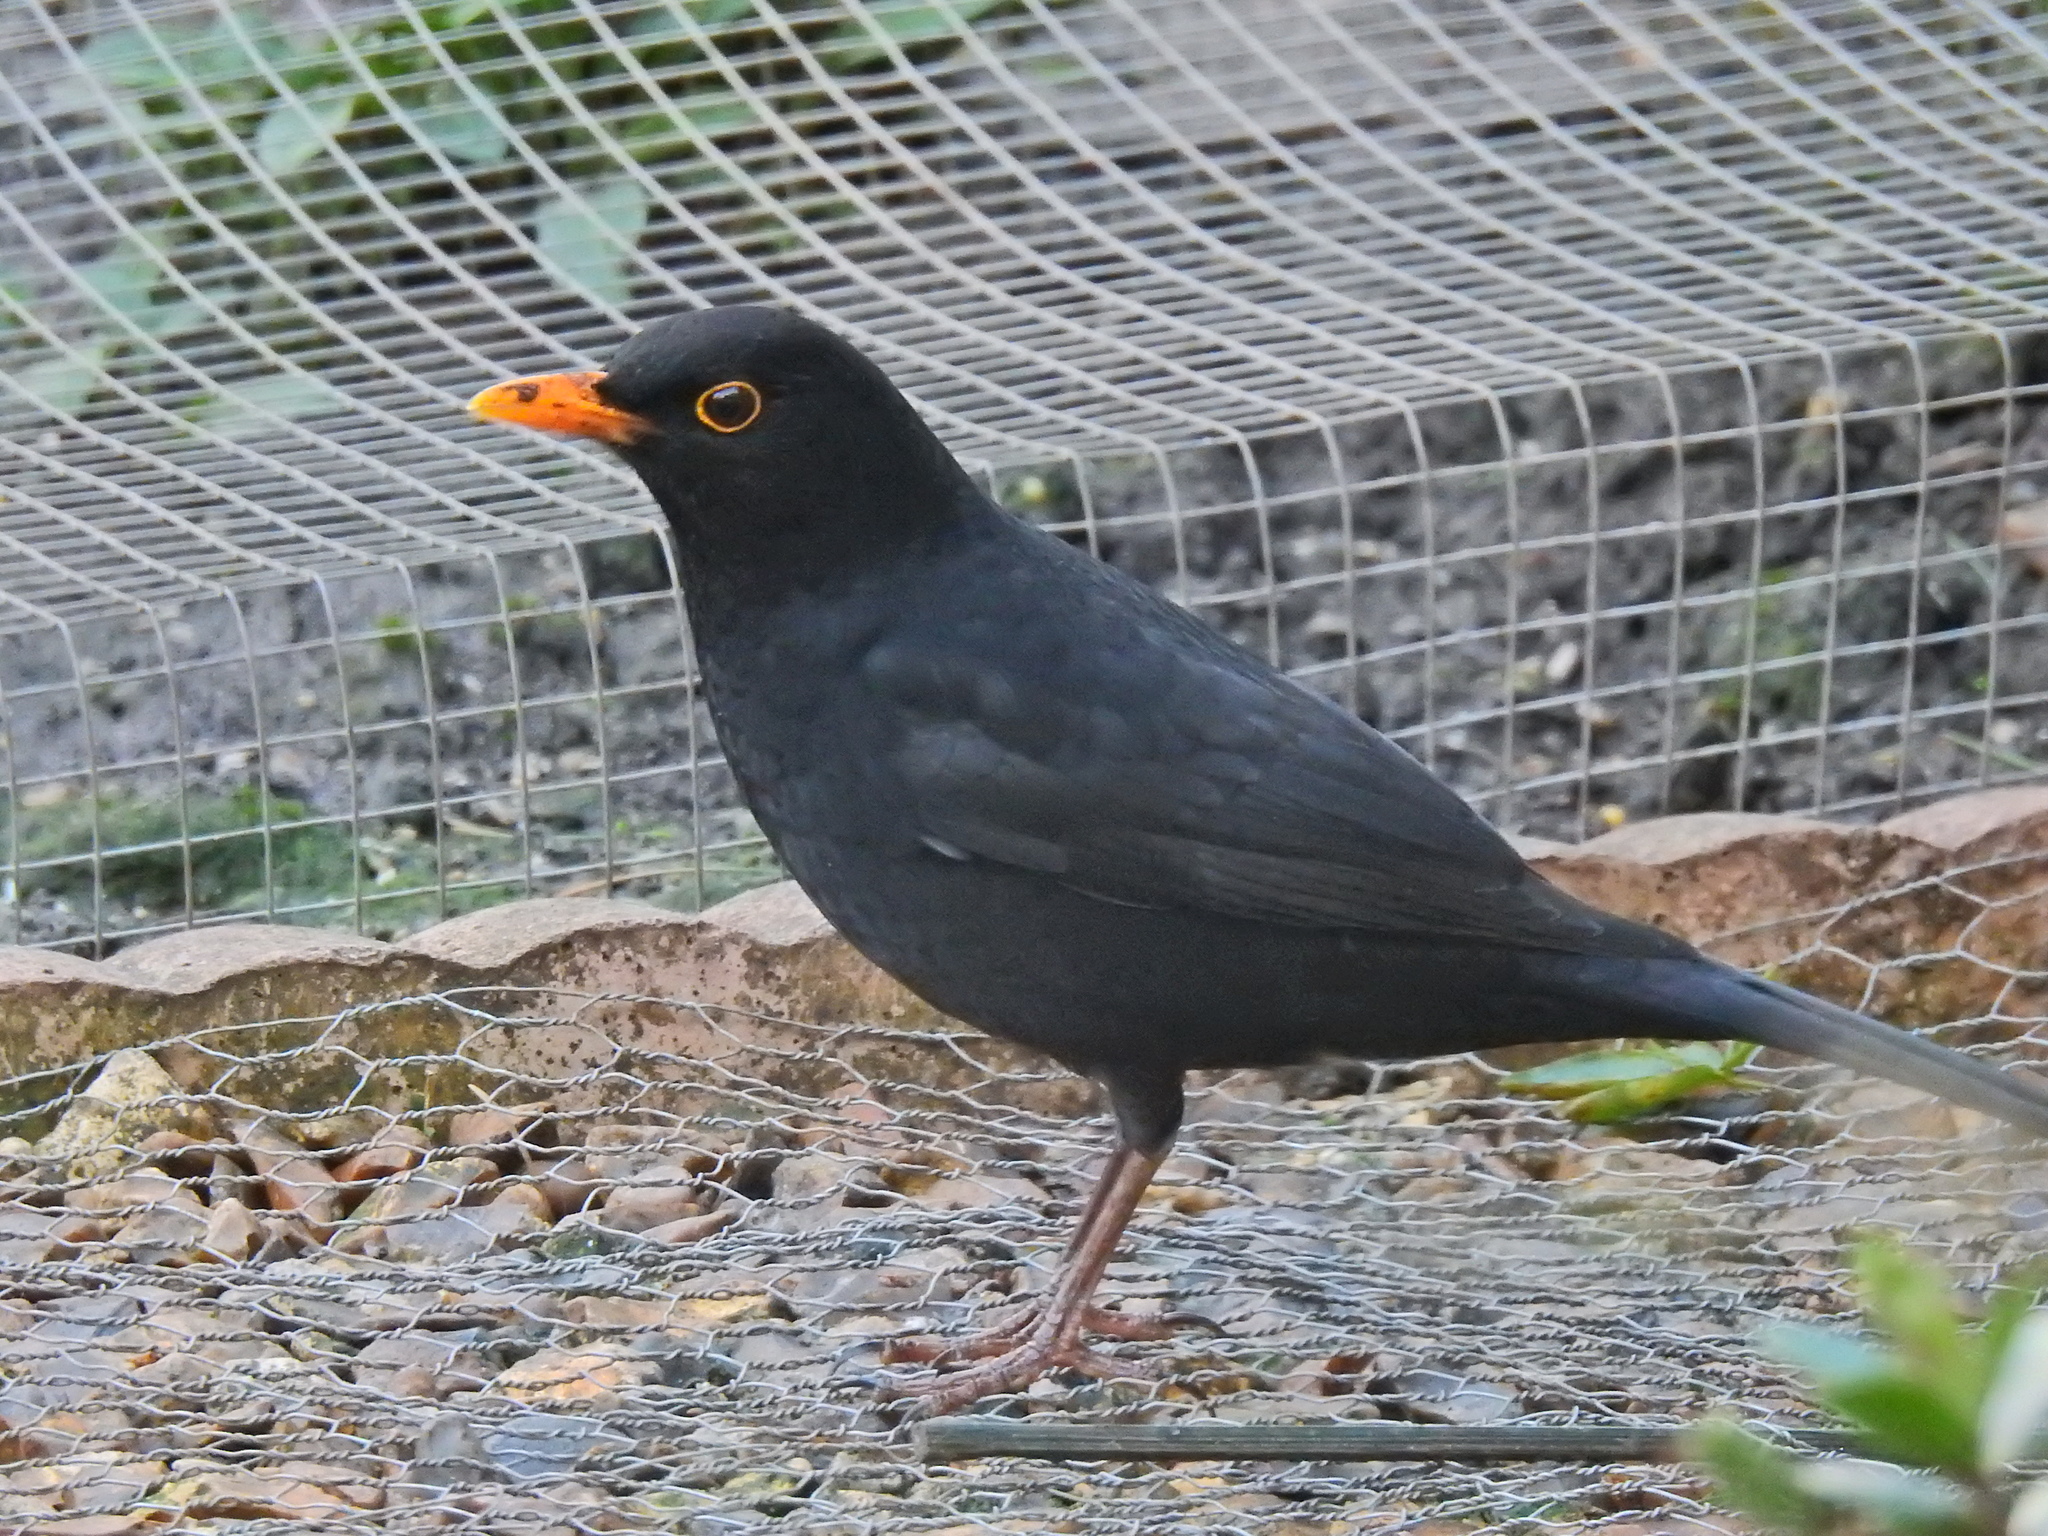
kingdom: Animalia
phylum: Chordata
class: Aves
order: Passeriformes
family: Turdidae
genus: Turdus
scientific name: Turdus merula
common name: Common blackbird
